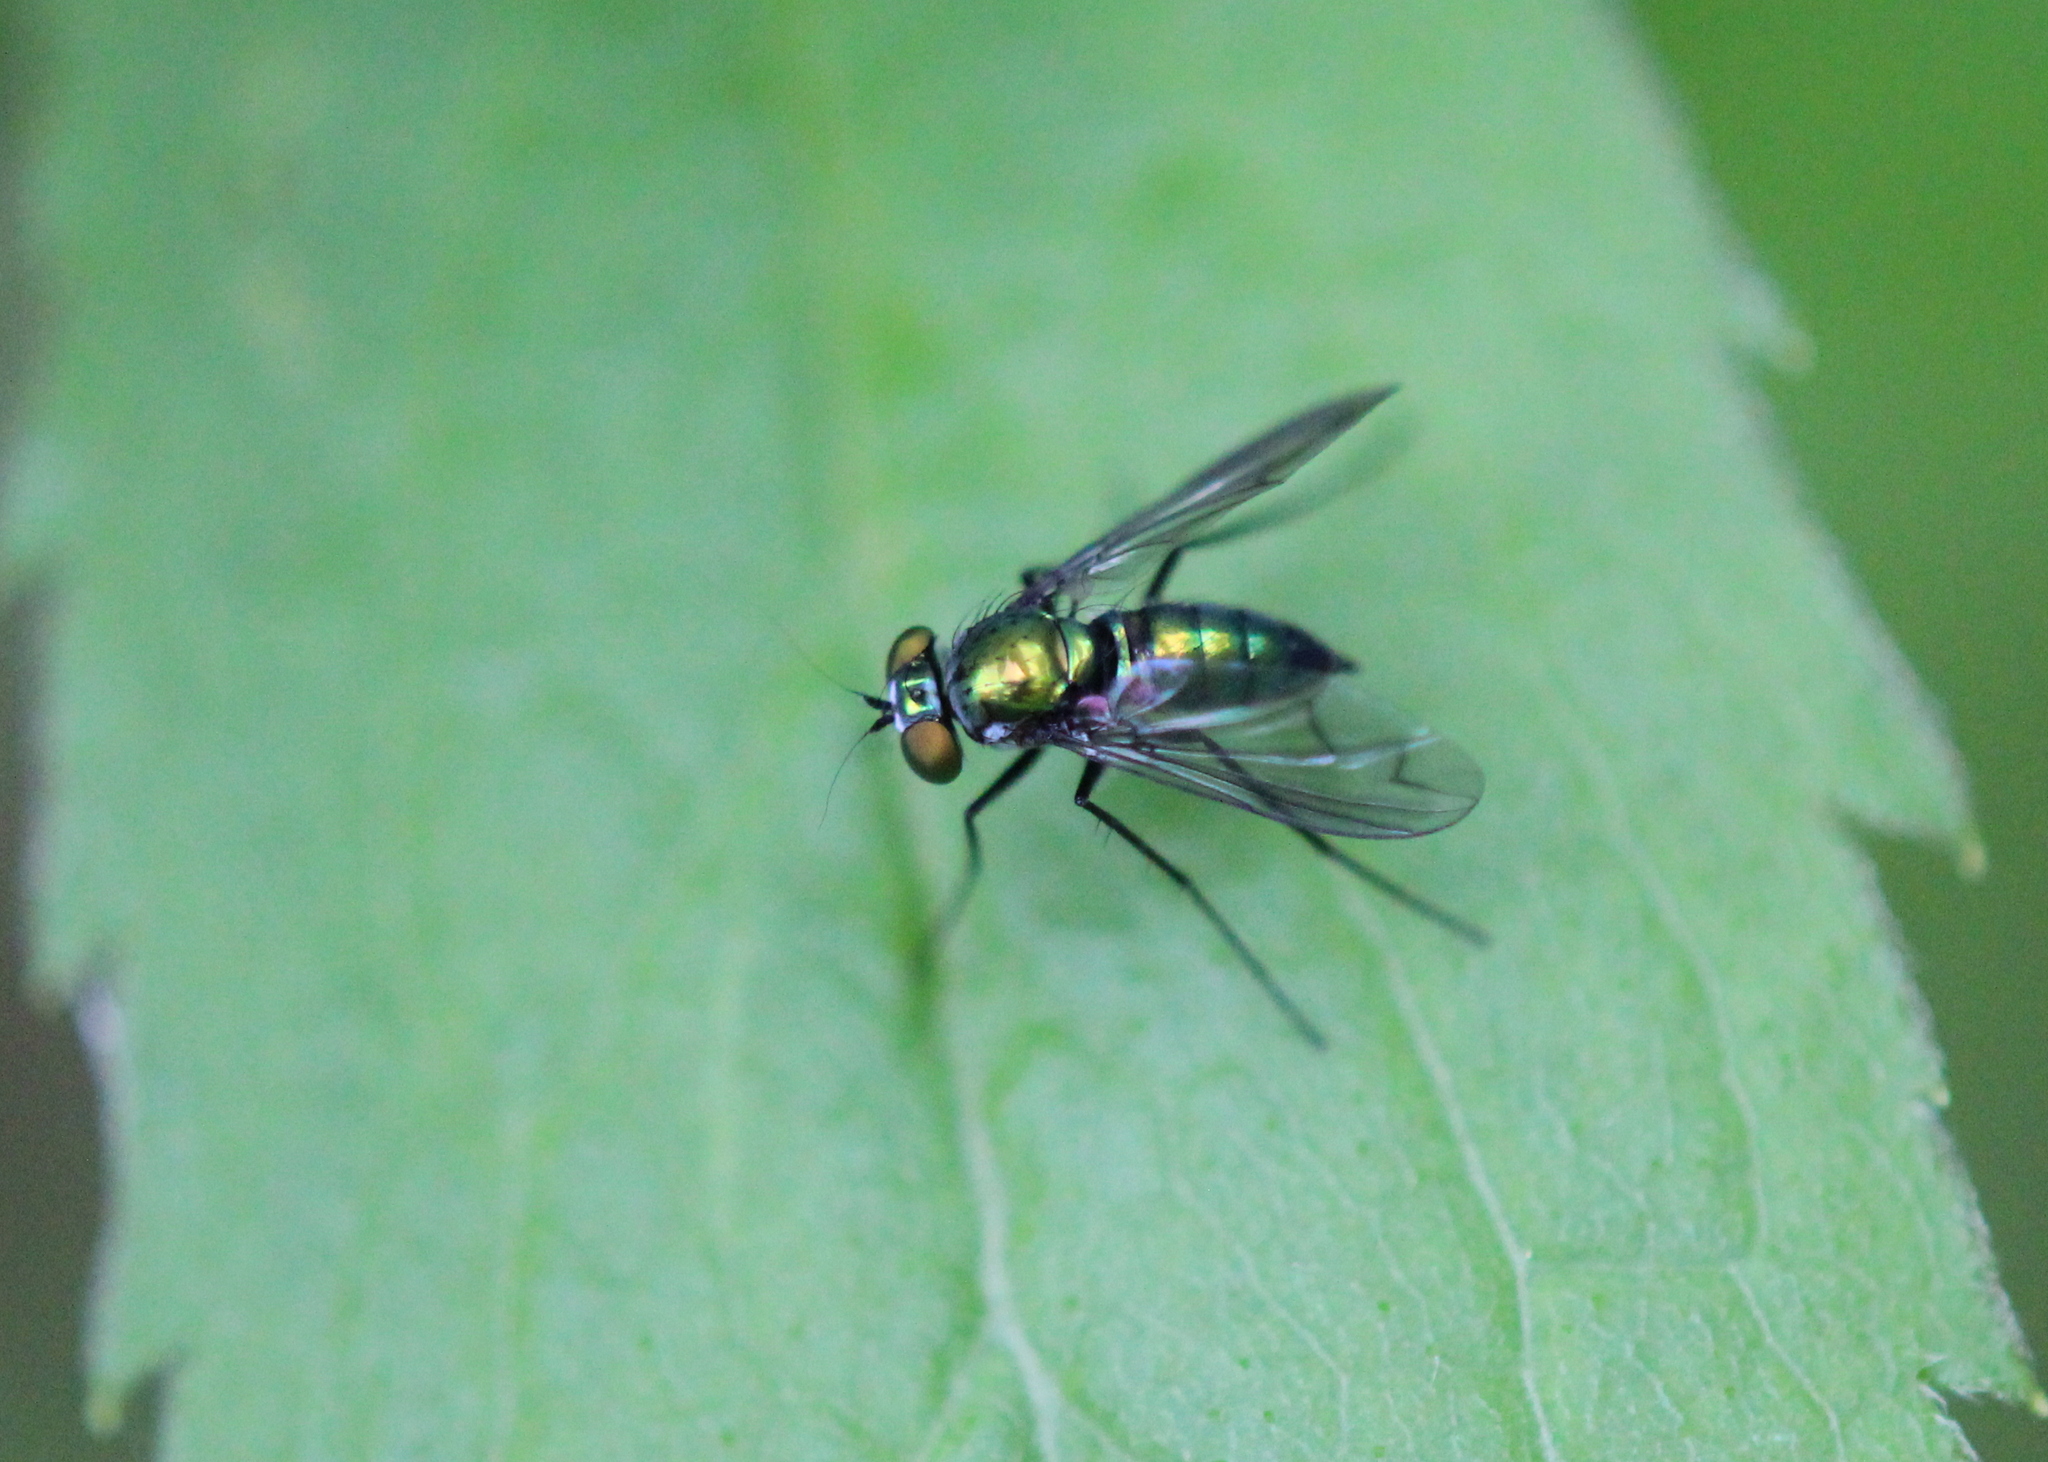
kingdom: Animalia
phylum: Arthropoda
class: Insecta
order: Diptera
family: Dolichopodidae
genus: Condylostylus
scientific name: Condylostylus patibulatus
